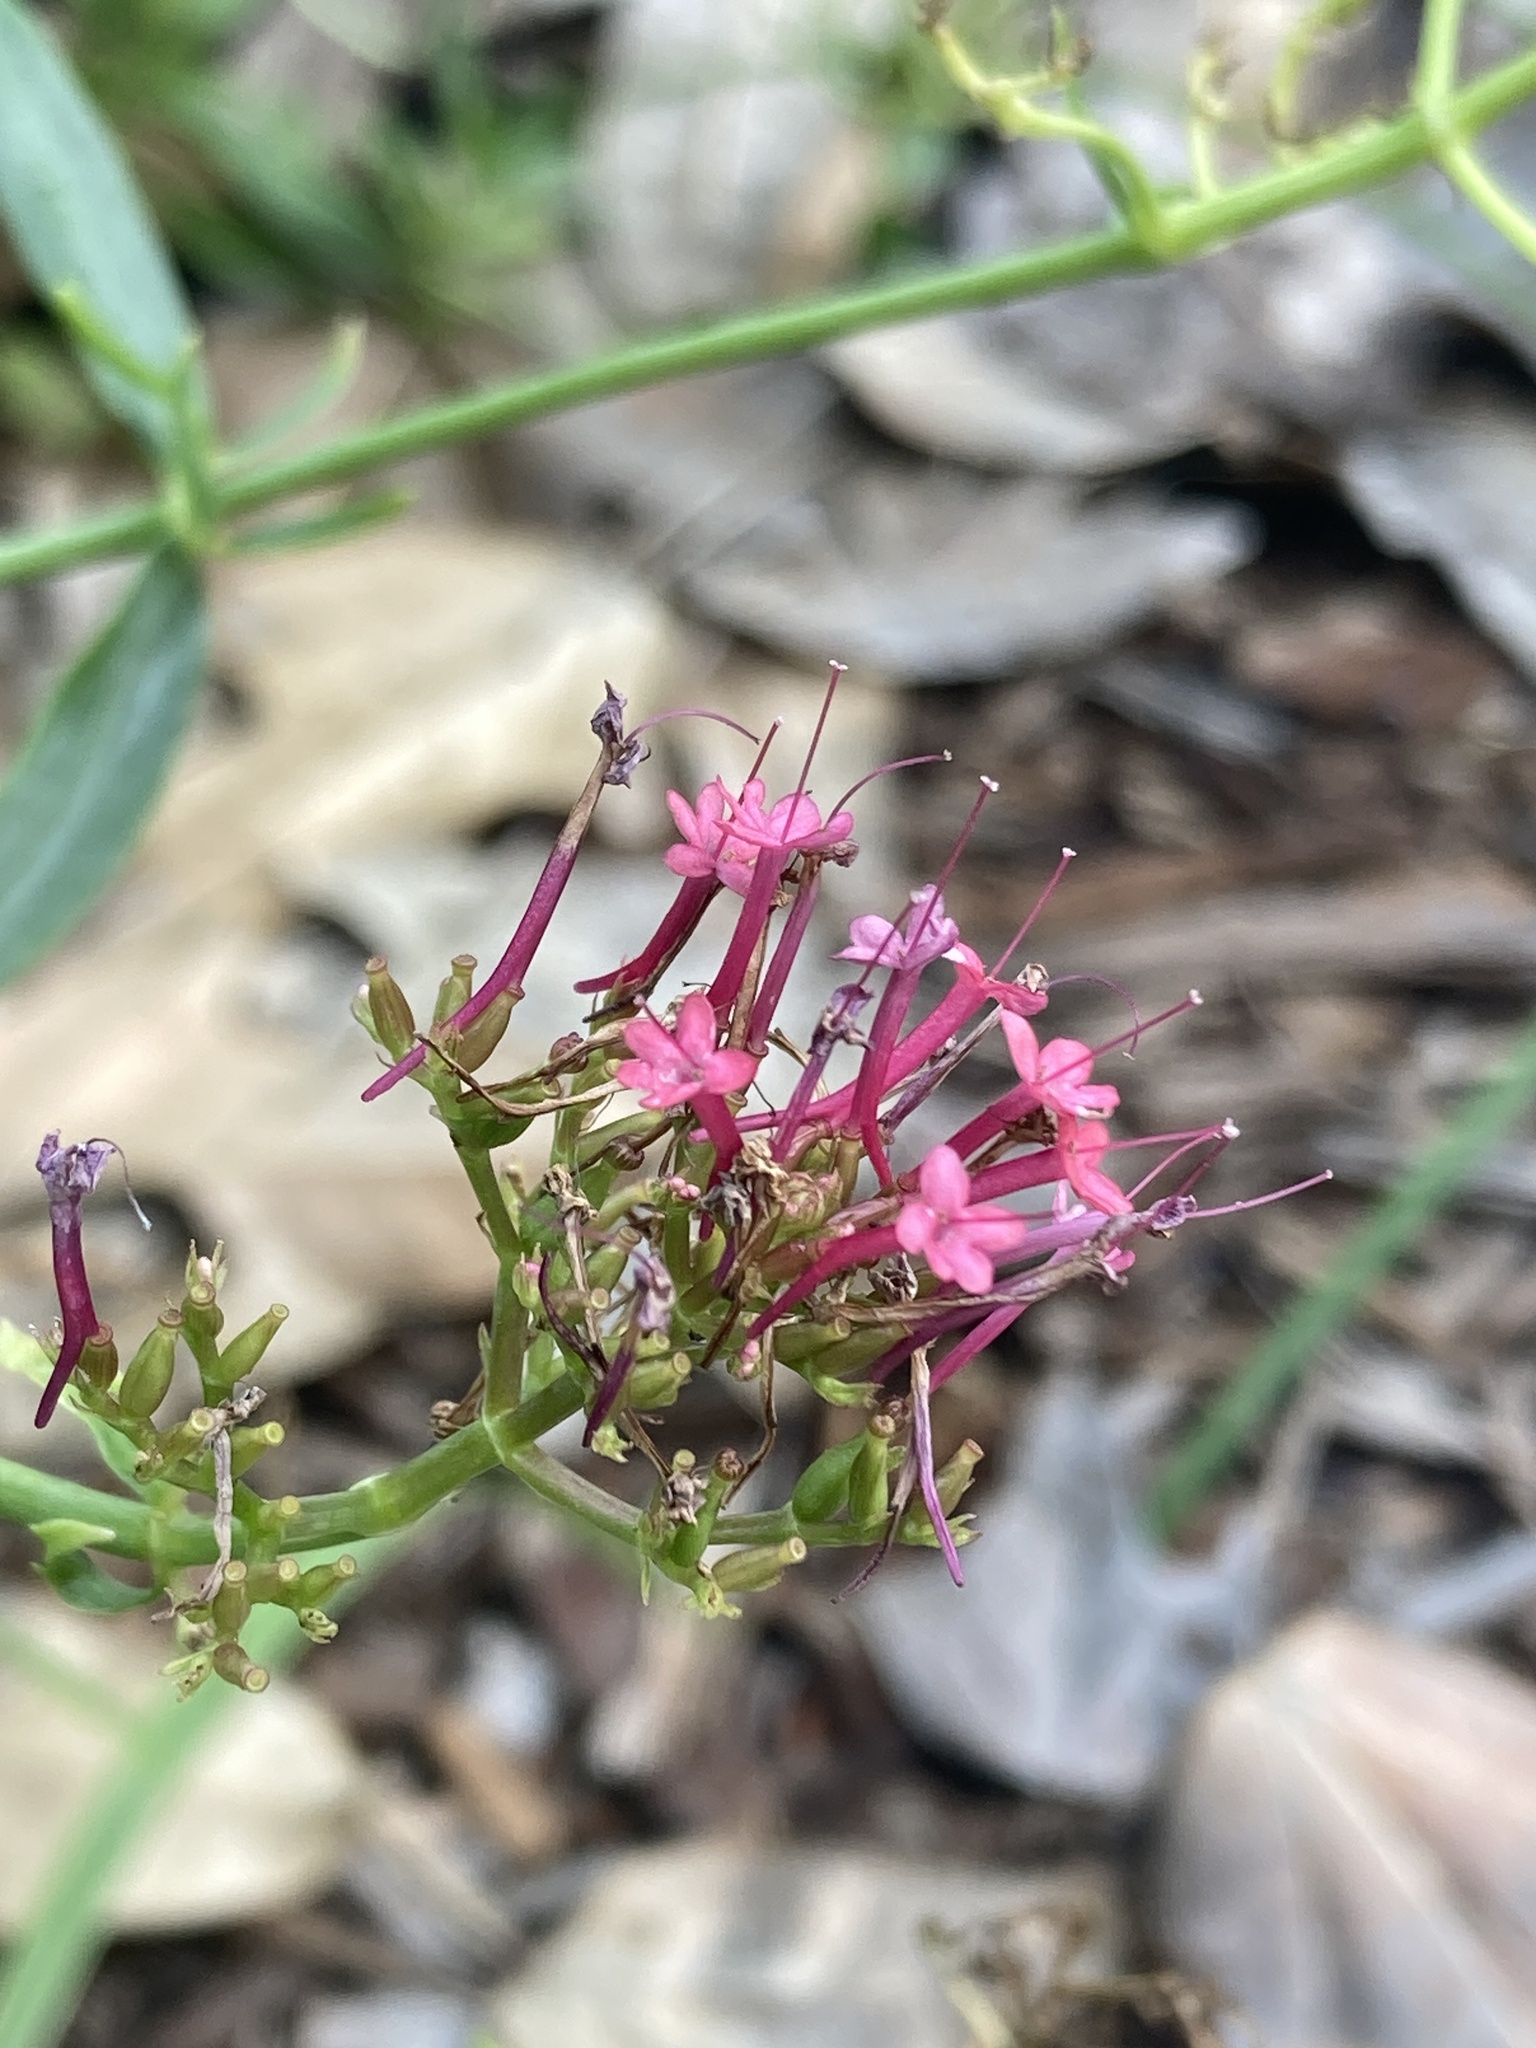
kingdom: Plantae
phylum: Tracheophyta
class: Magnoliopsida
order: Dipsacales
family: Caprifoliaceae
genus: Centranthus
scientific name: Centranthus ruber
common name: Red valerian
